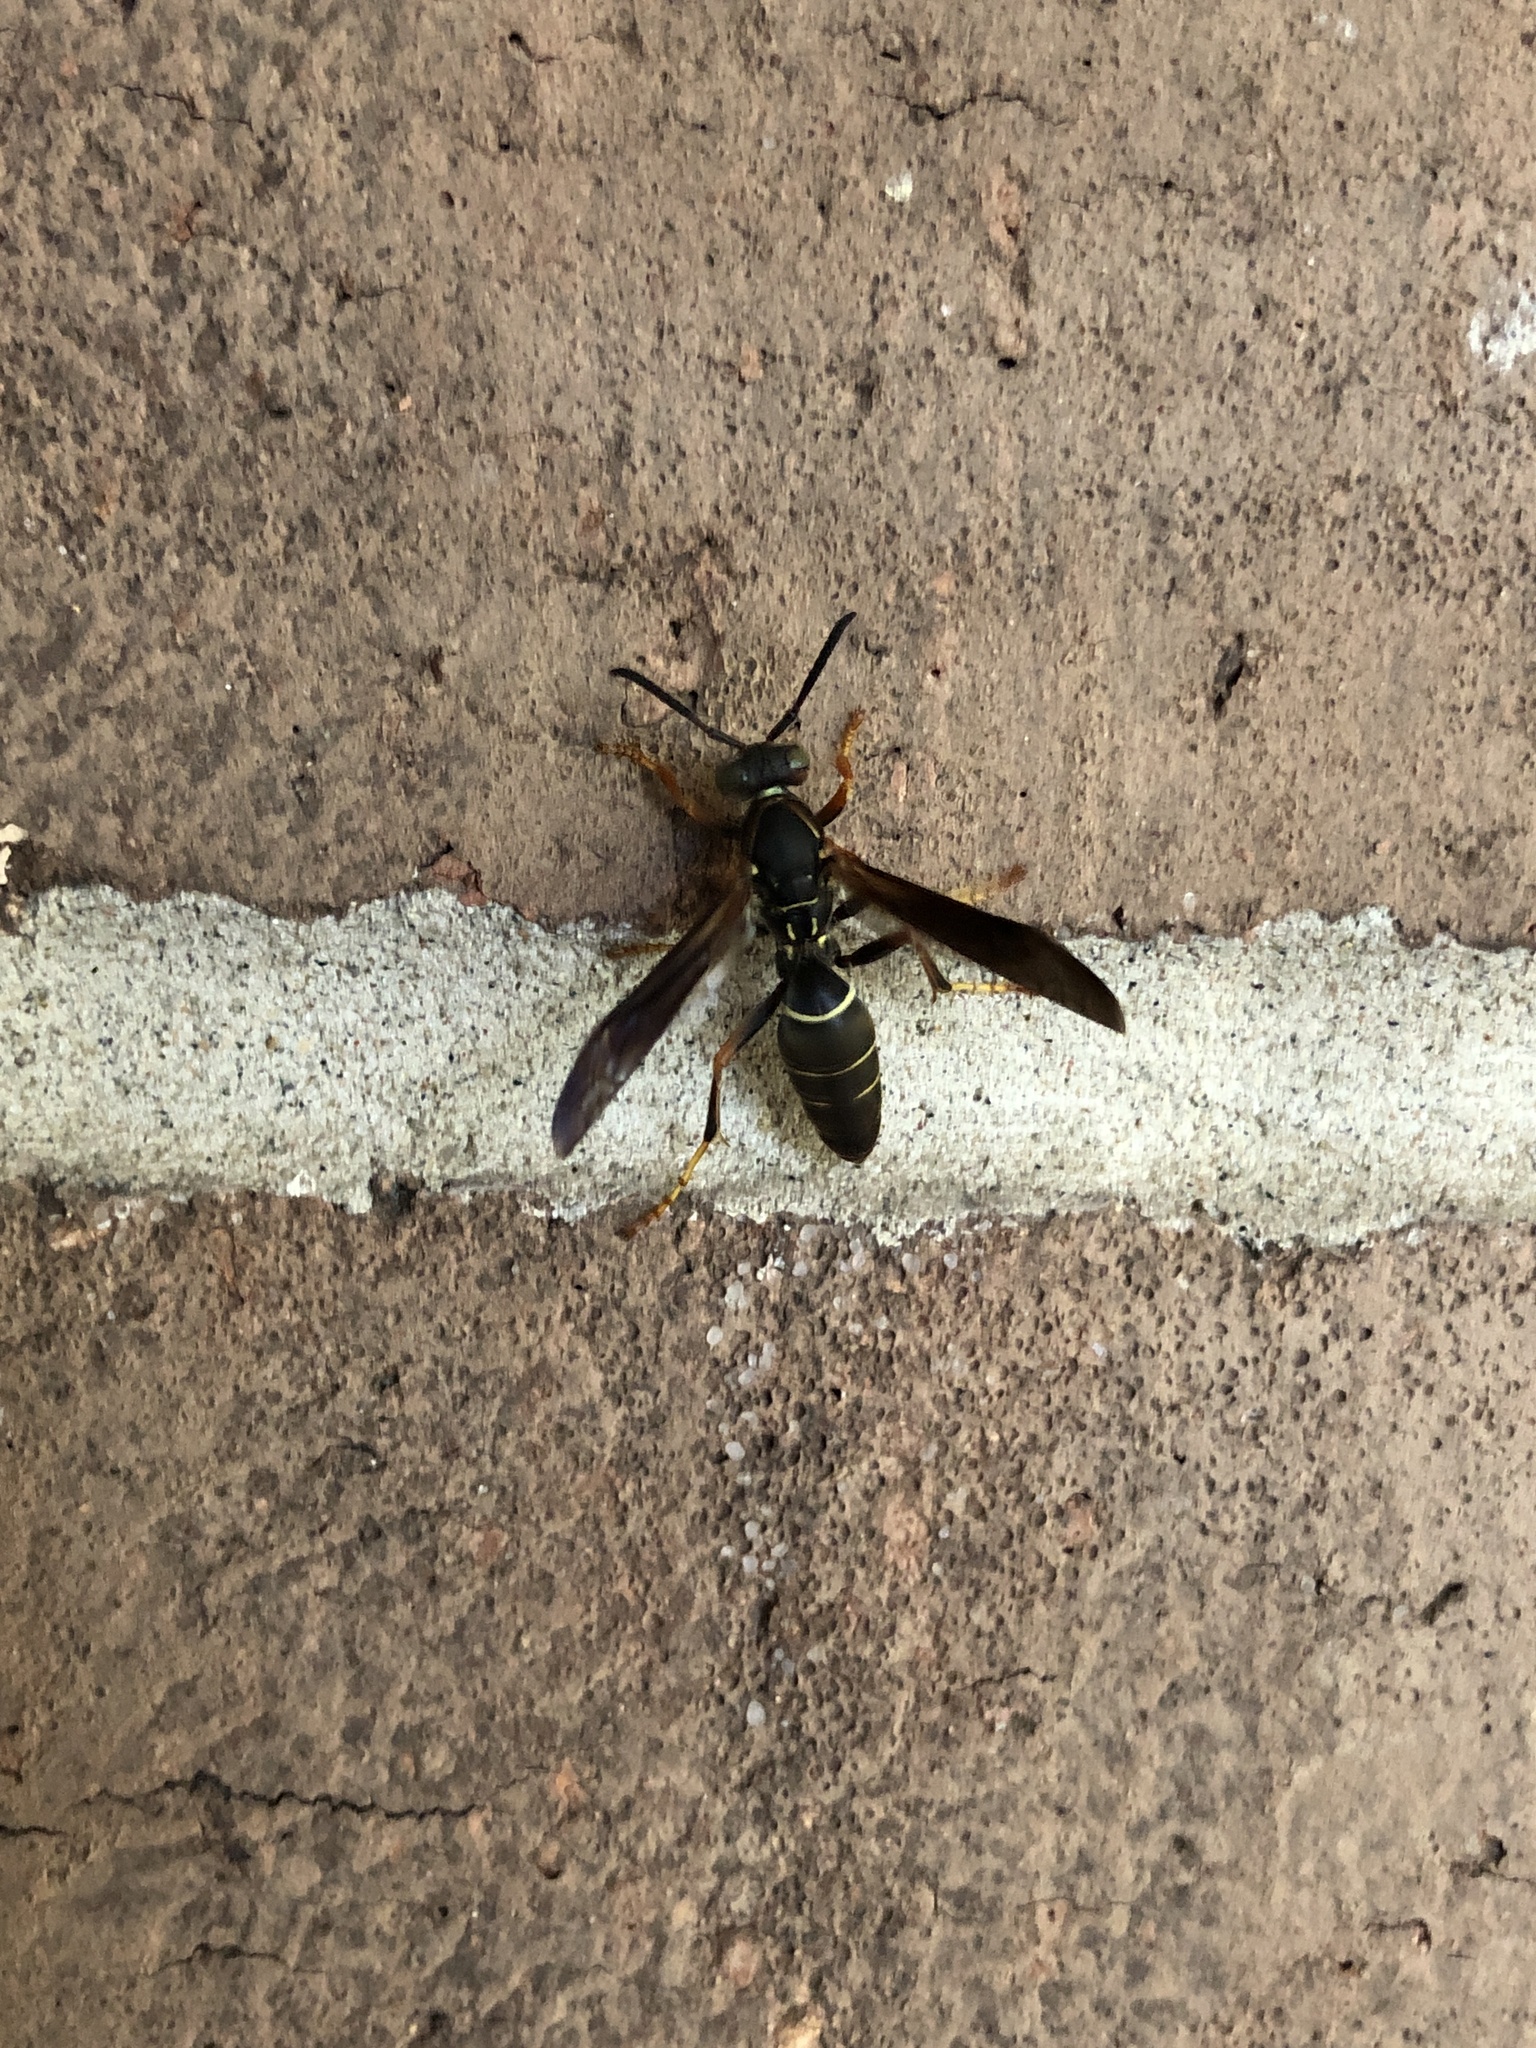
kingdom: Animalia
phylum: Arthropoda
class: Insecta
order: Hymenoptera
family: Eumenidae
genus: Polistes
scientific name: Polistes fuscatus
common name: Dark paper wasp
